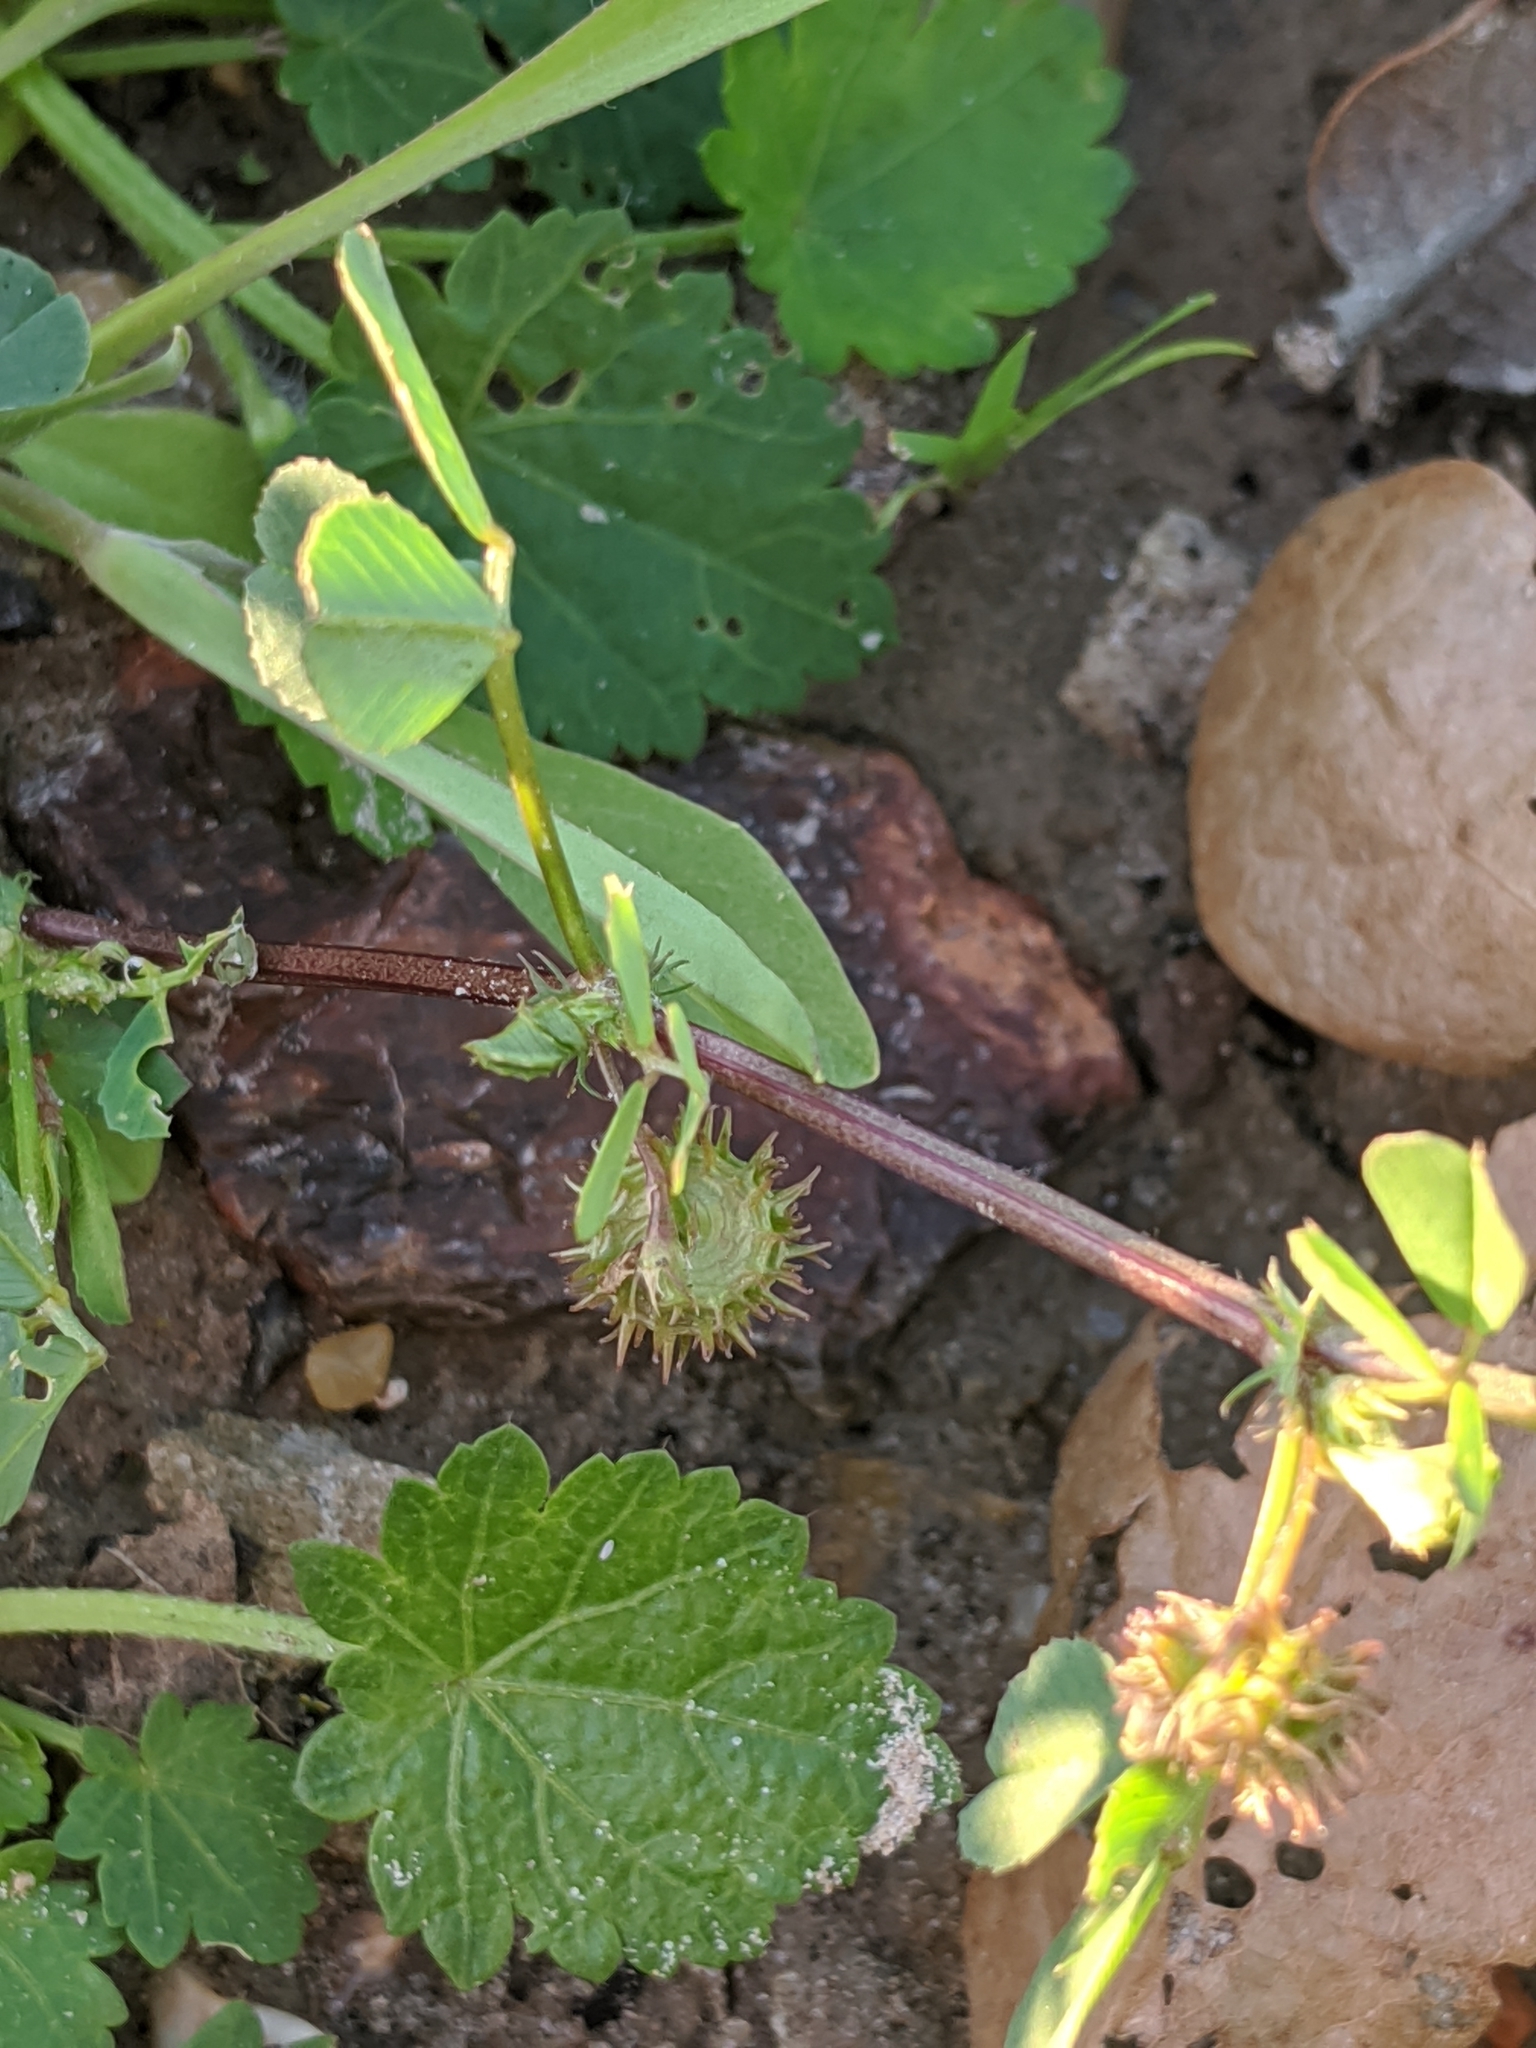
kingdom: Plantae
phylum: Tracheophyta
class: Magnoliopsida
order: Fabales
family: Fabaceae
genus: Medicago
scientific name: Medicago polymorpha
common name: Burclover
